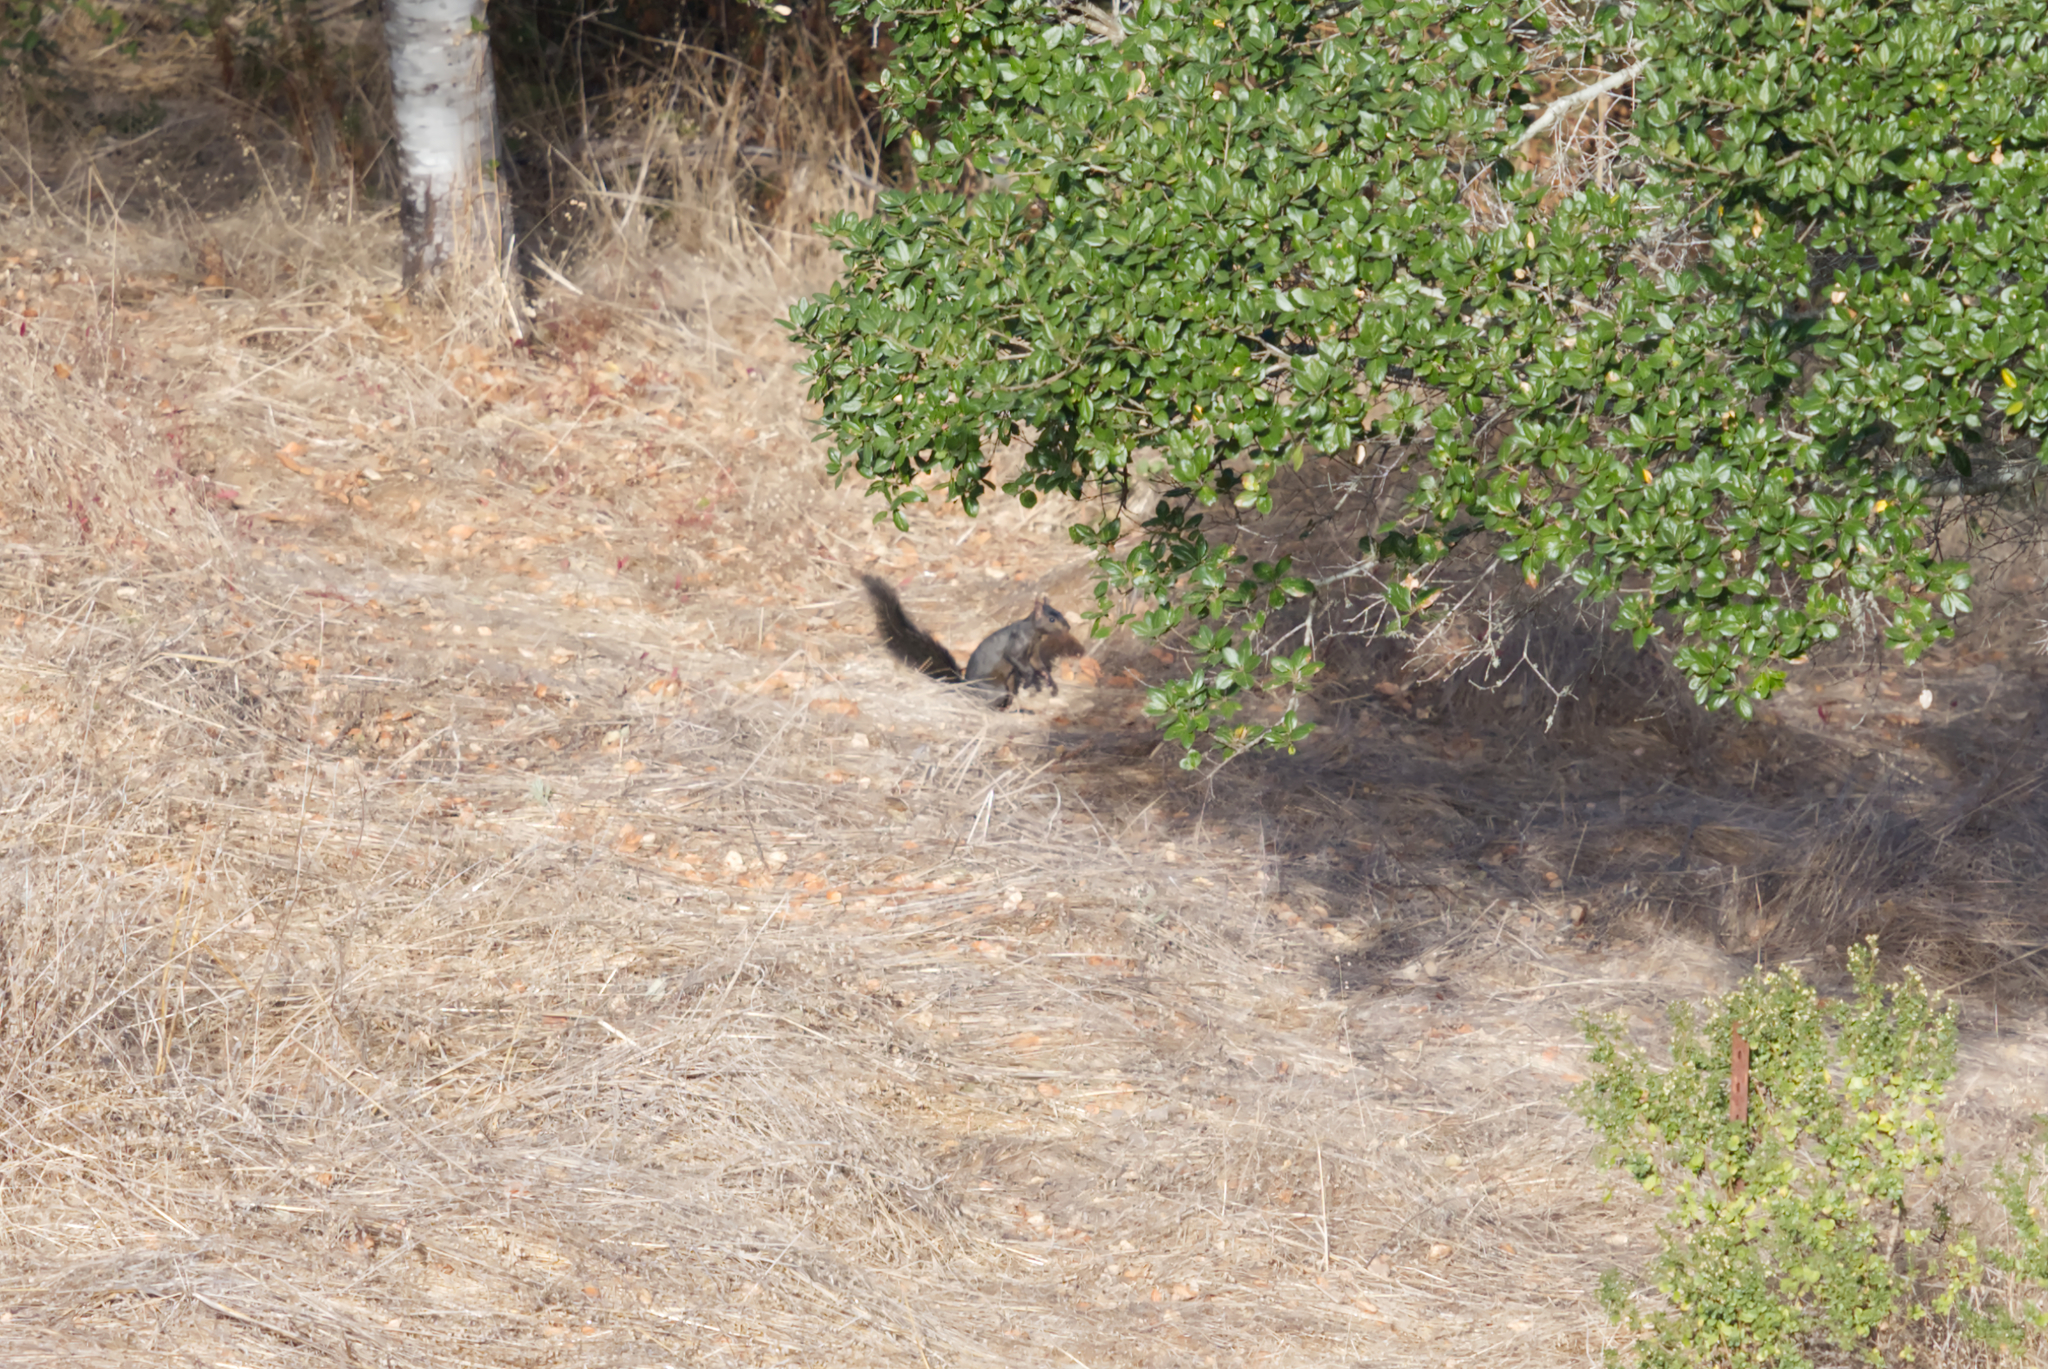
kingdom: Animalia
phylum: Chordata
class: Mammalia
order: Rodentia
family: Sciuridae
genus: Sciurus
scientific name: Sciurus carolinensis
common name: Eastern gray squirrel
